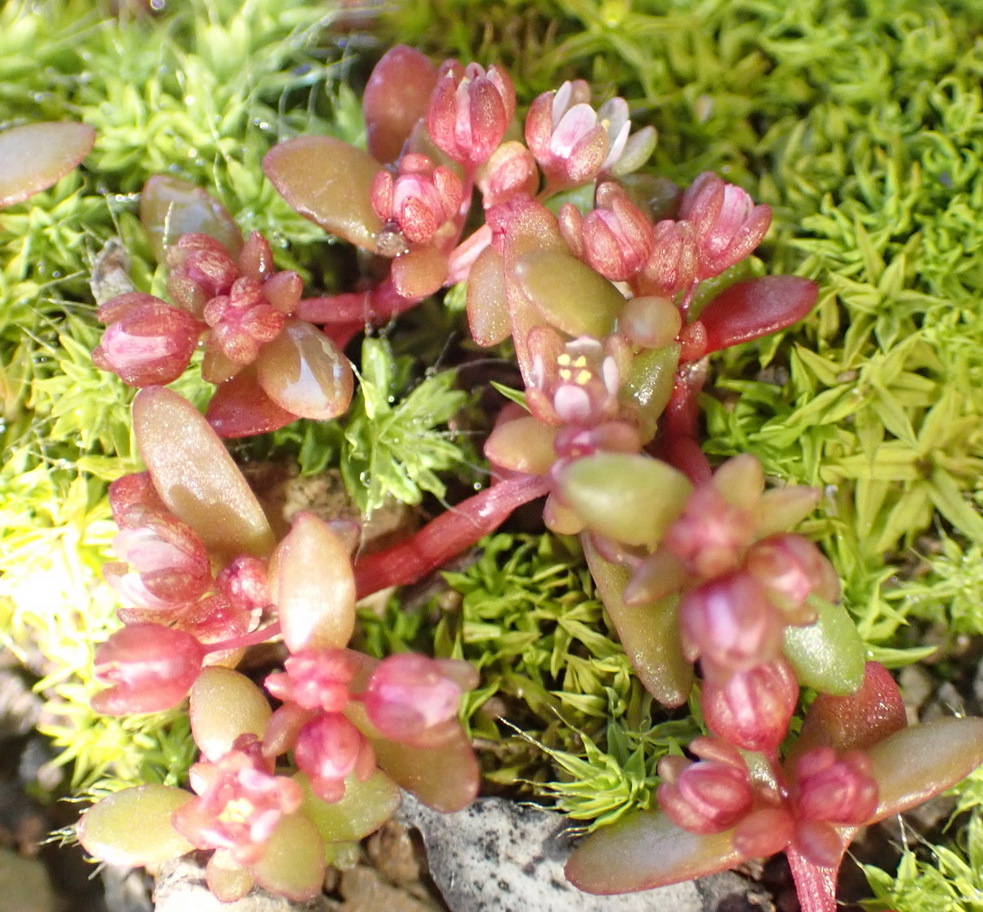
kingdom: Plantae
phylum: Tracheophyta
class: Magnoliopsida
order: Saxifragales
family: Crassulaceae
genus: Crassula
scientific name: Crassula expansa
